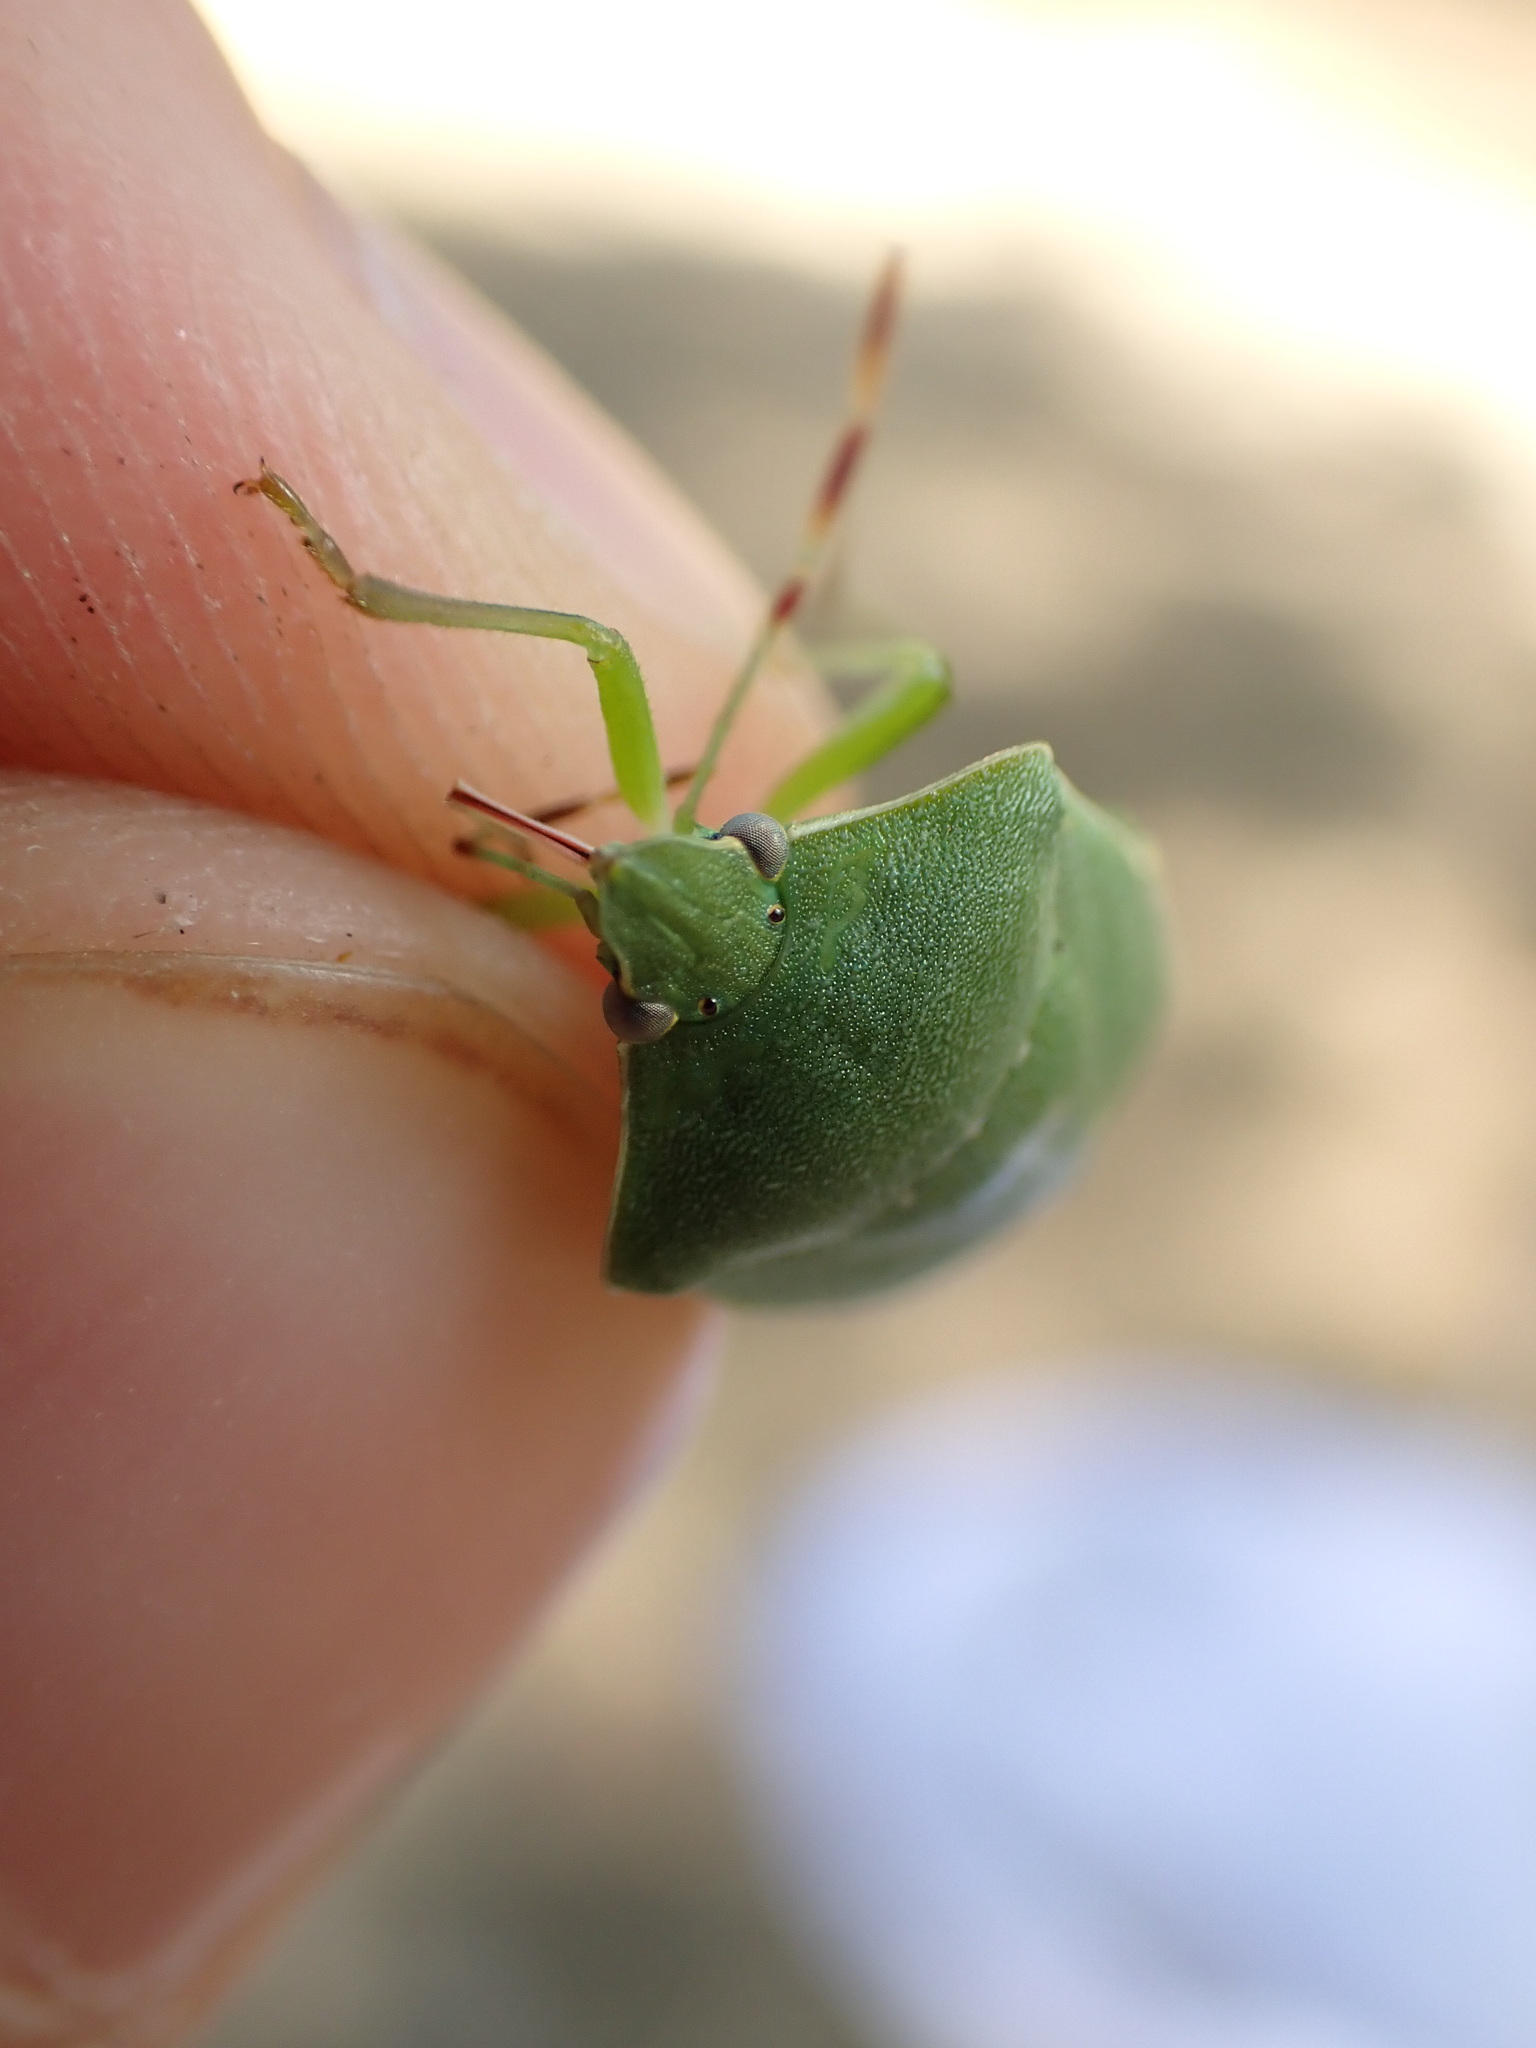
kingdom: Animalia
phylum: Arthropoda
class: Insecta
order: Hemiptera
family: Pentatomidae
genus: Nezara
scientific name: Nezara viridula
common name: Southern green stink bug
